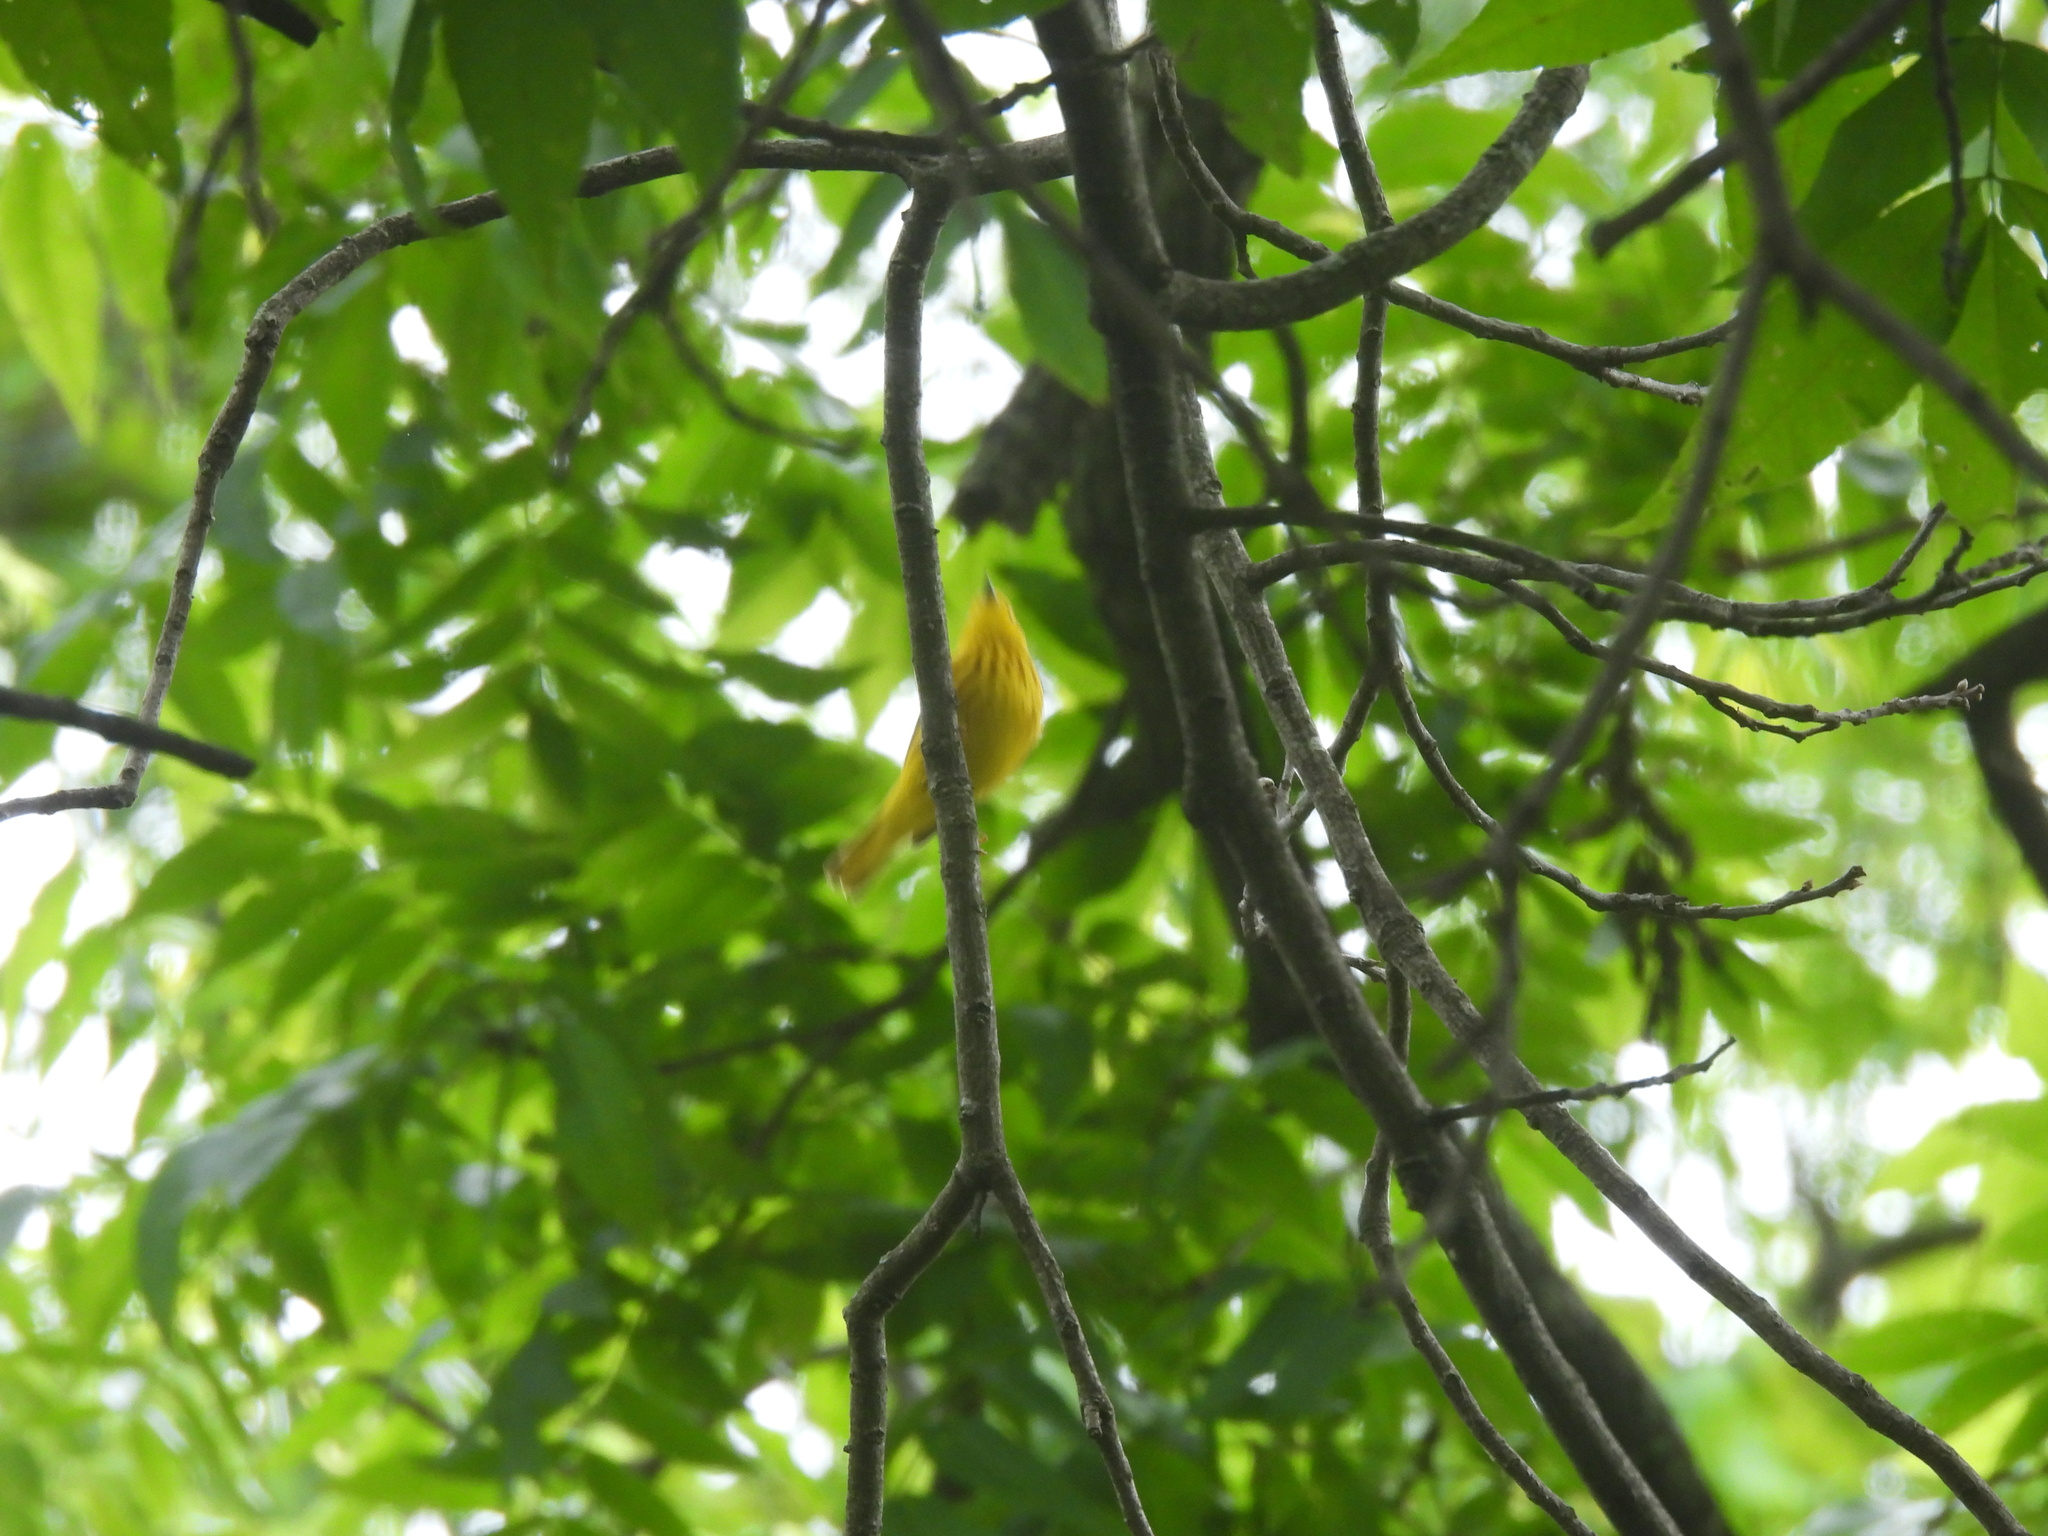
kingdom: Animalia
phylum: Chordata
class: Aves
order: Passeriformes
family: Parulidae
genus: Setophaga
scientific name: Setophaga petechia
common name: Yellow warbler
